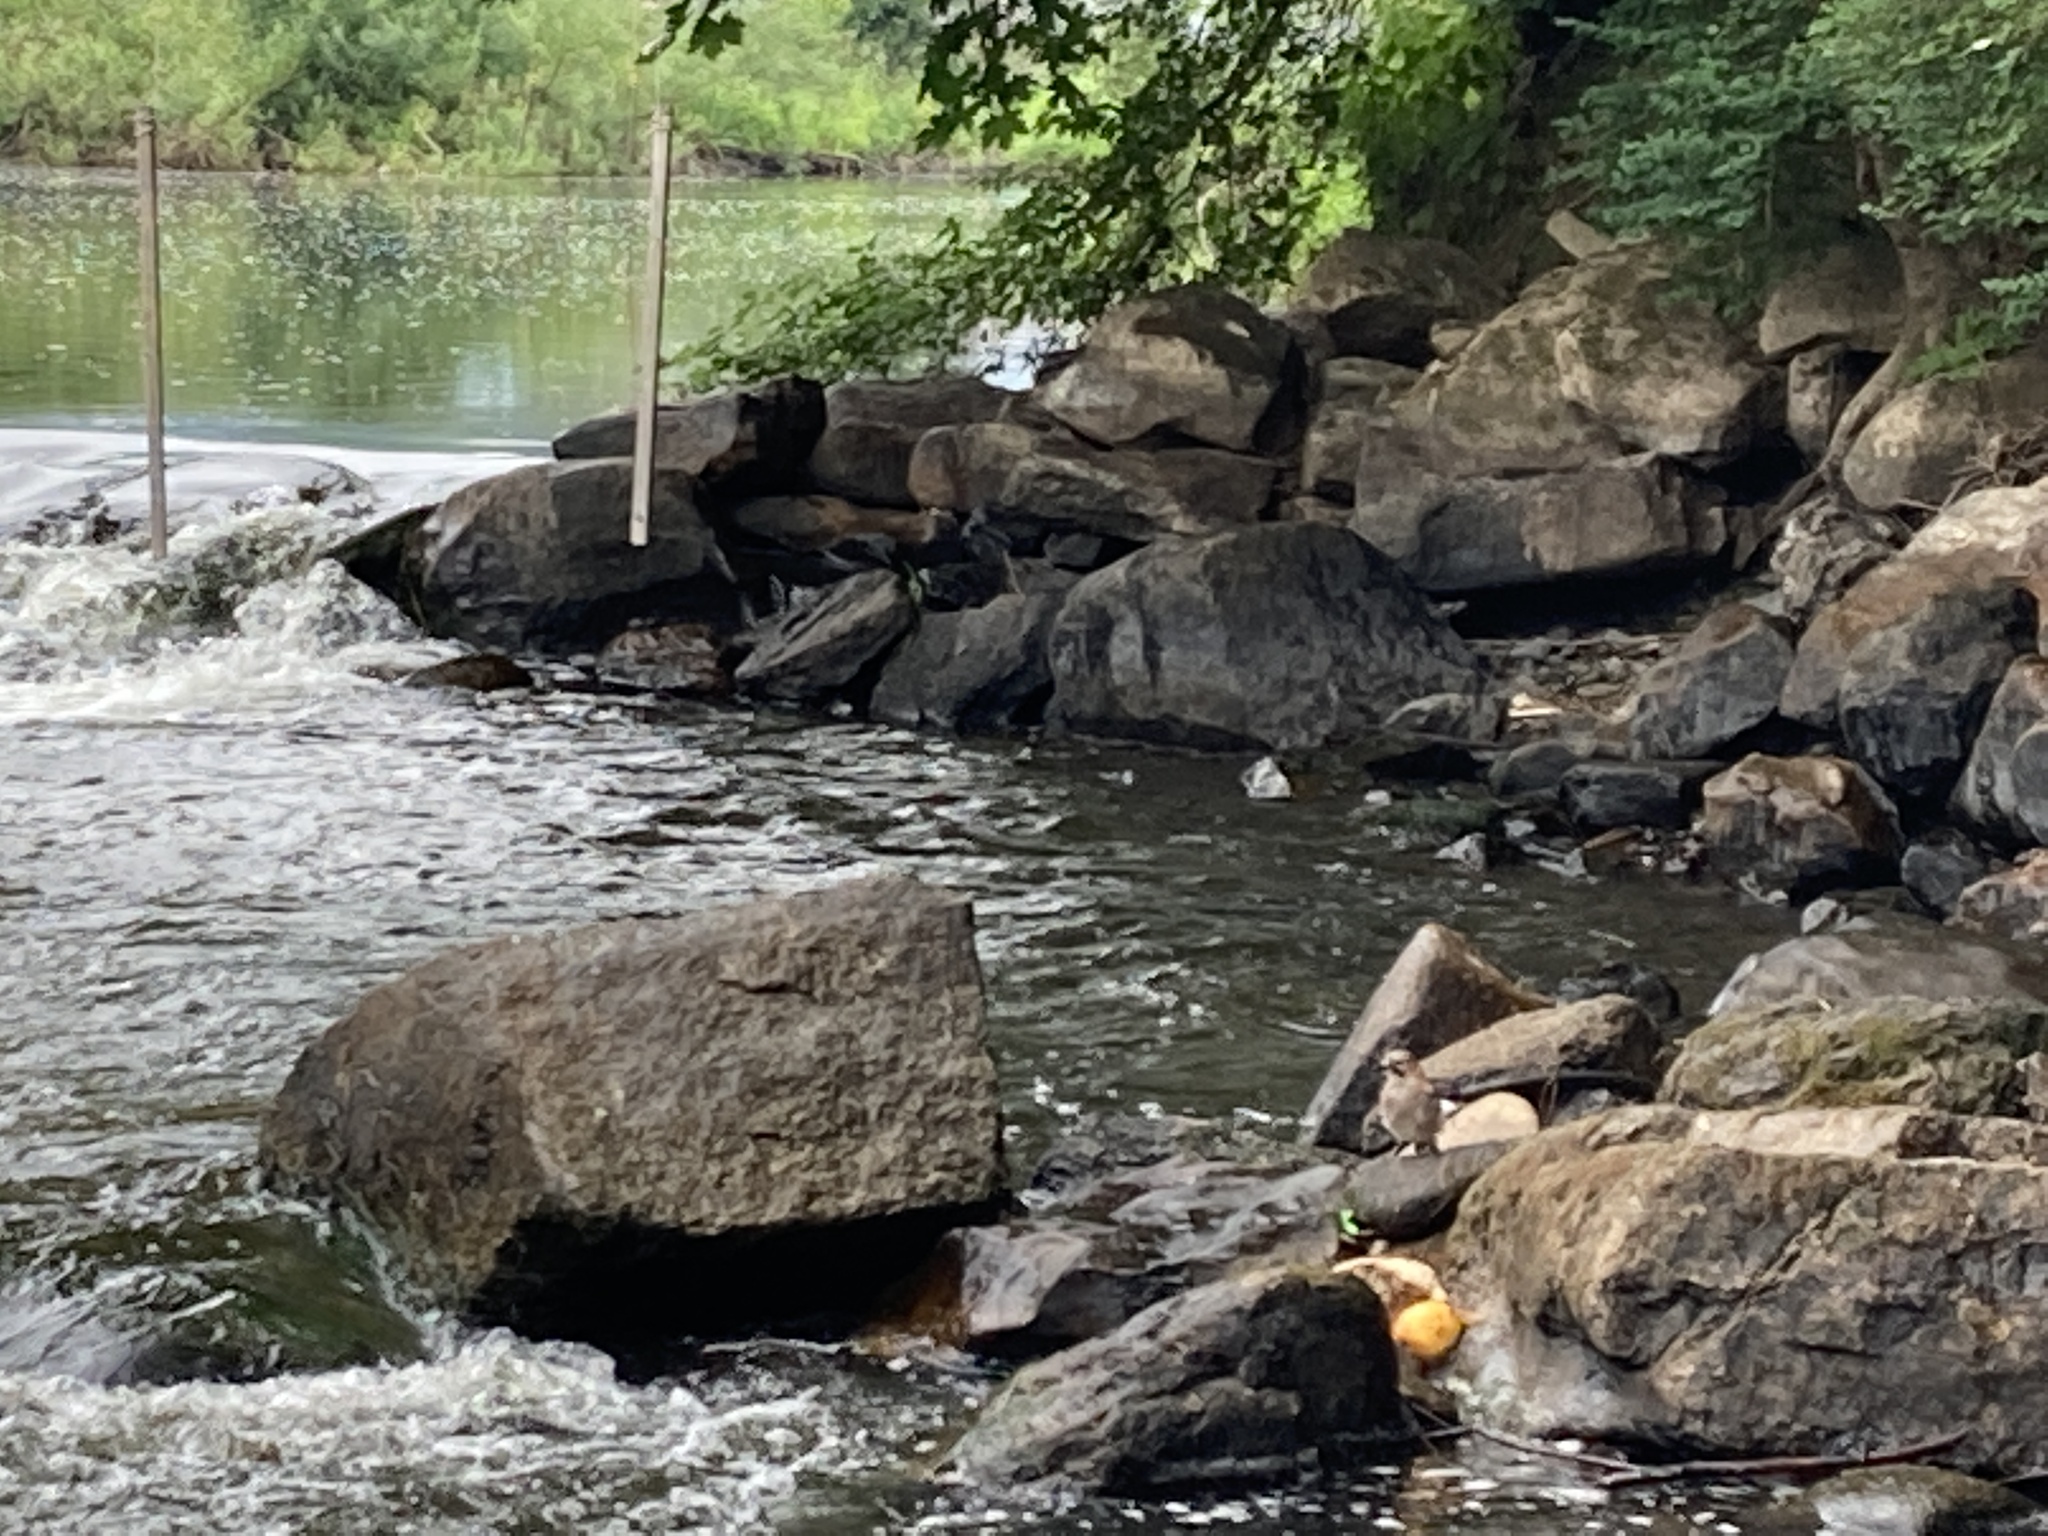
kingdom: Animalia
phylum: Chordata
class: Aves
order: Passeriformes
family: Corvidae
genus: Garrulus
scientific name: Garrulus glandarius
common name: Eurasian jay
